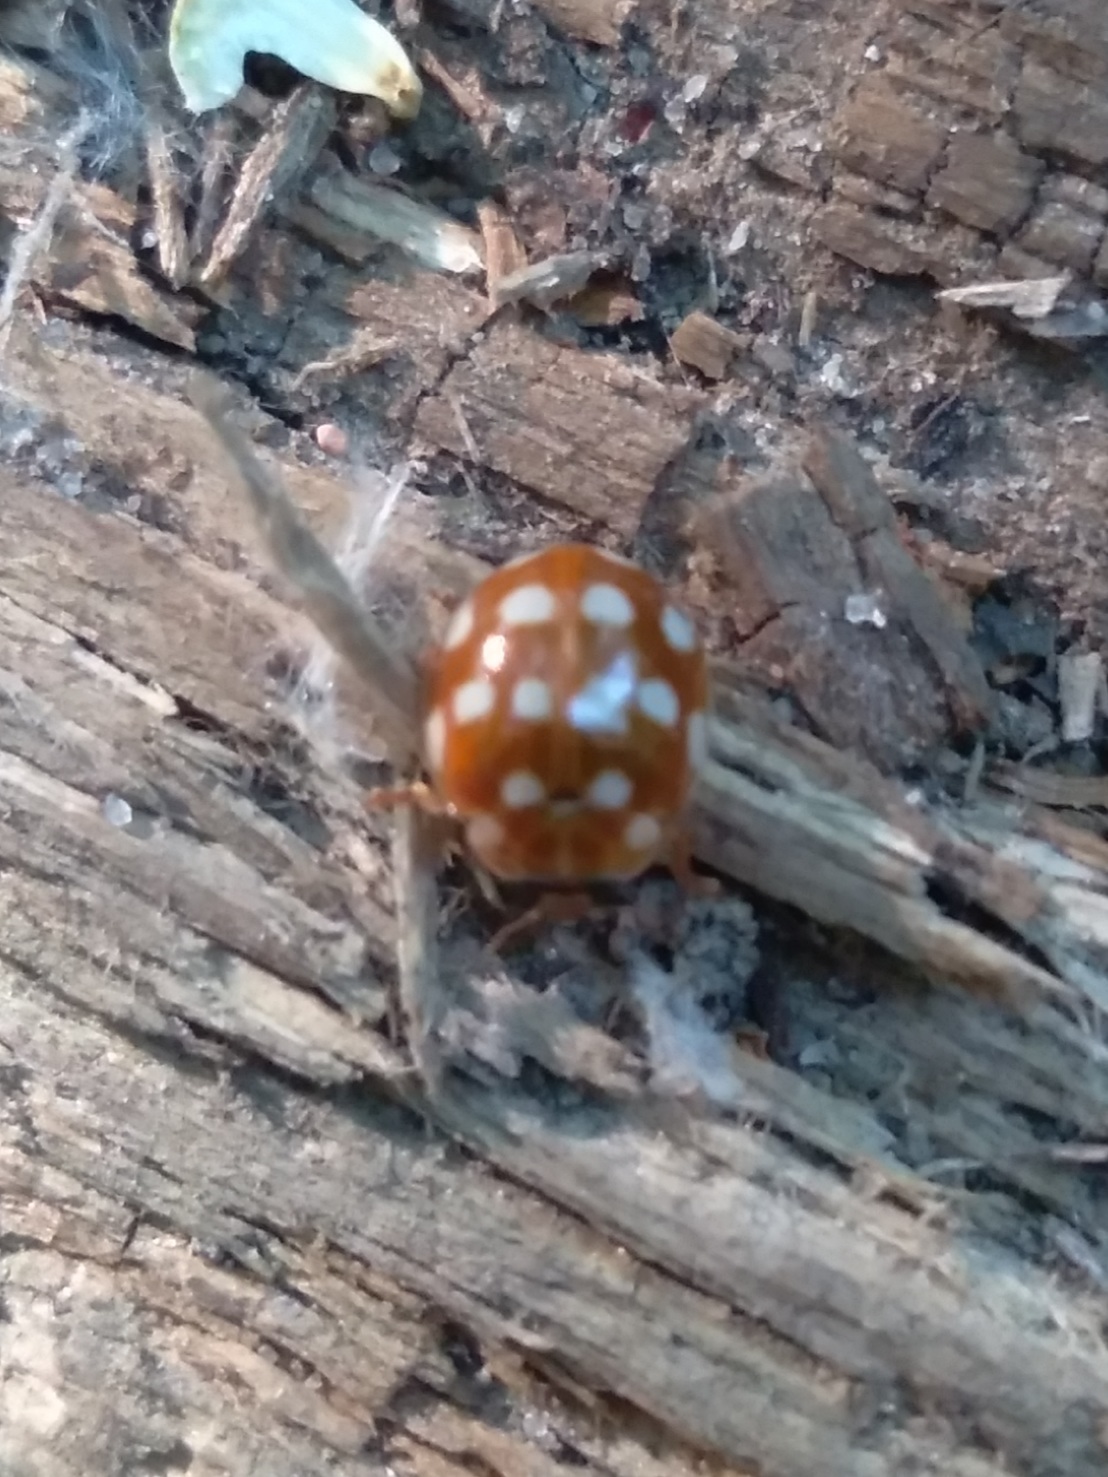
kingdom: Animalia
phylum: Arthropoda
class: Insecta
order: Coleoptera
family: Coccinellidae
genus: Calvia
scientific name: Calvia quatuordecimguttata
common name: Cream-spot ladybird
